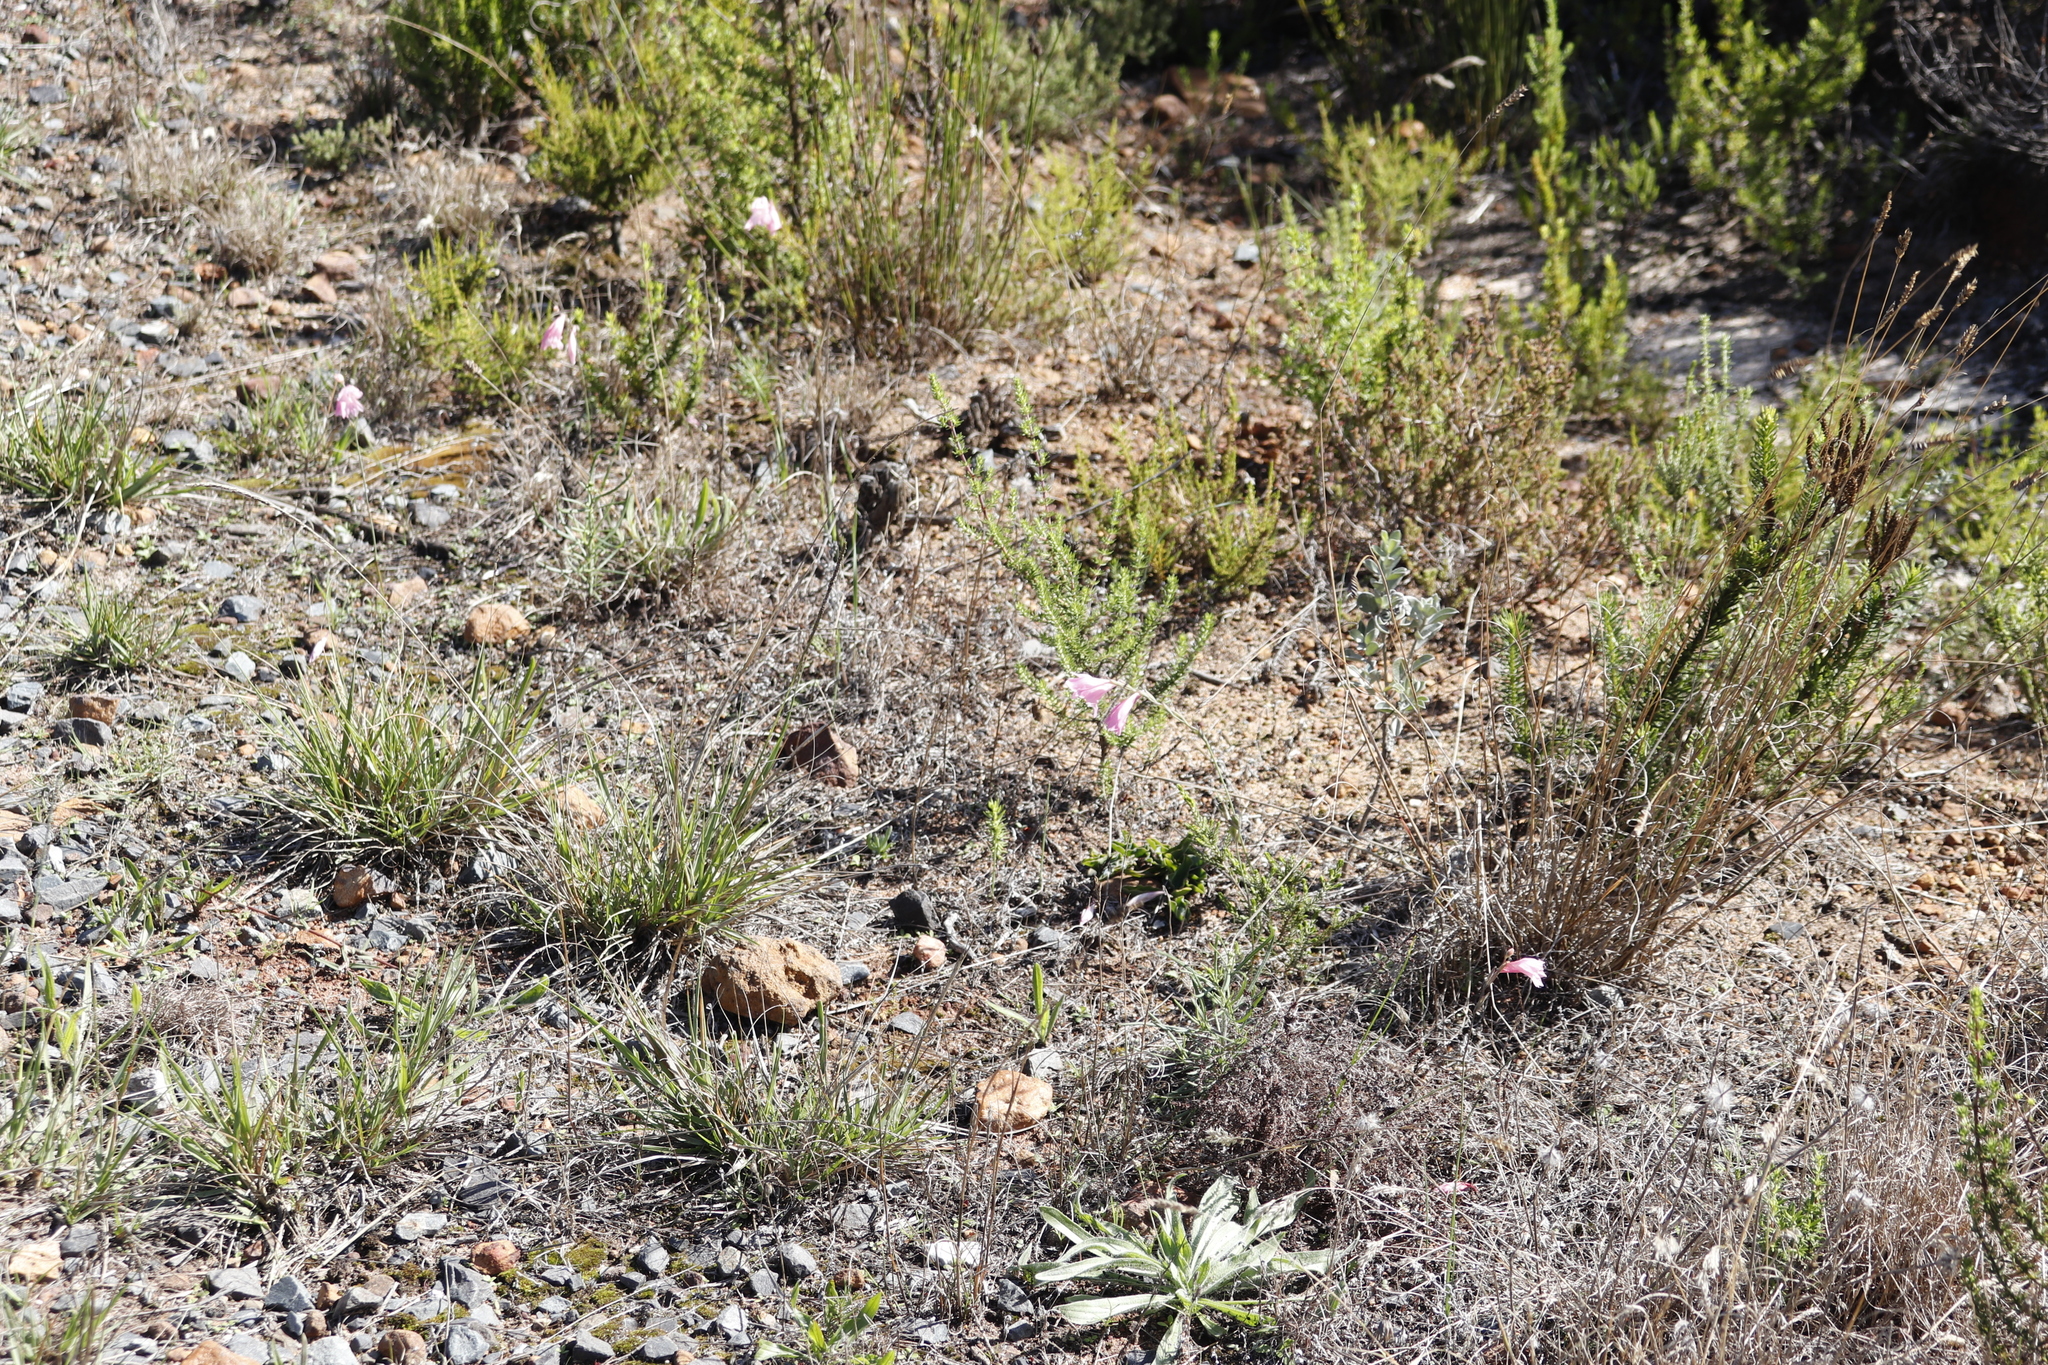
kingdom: Plantae
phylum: Tracheophyta
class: Liliopsida
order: Asparagales
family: Iridaceae
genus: Gladiolus
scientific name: Gladiolus brevifolius
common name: March pypie
